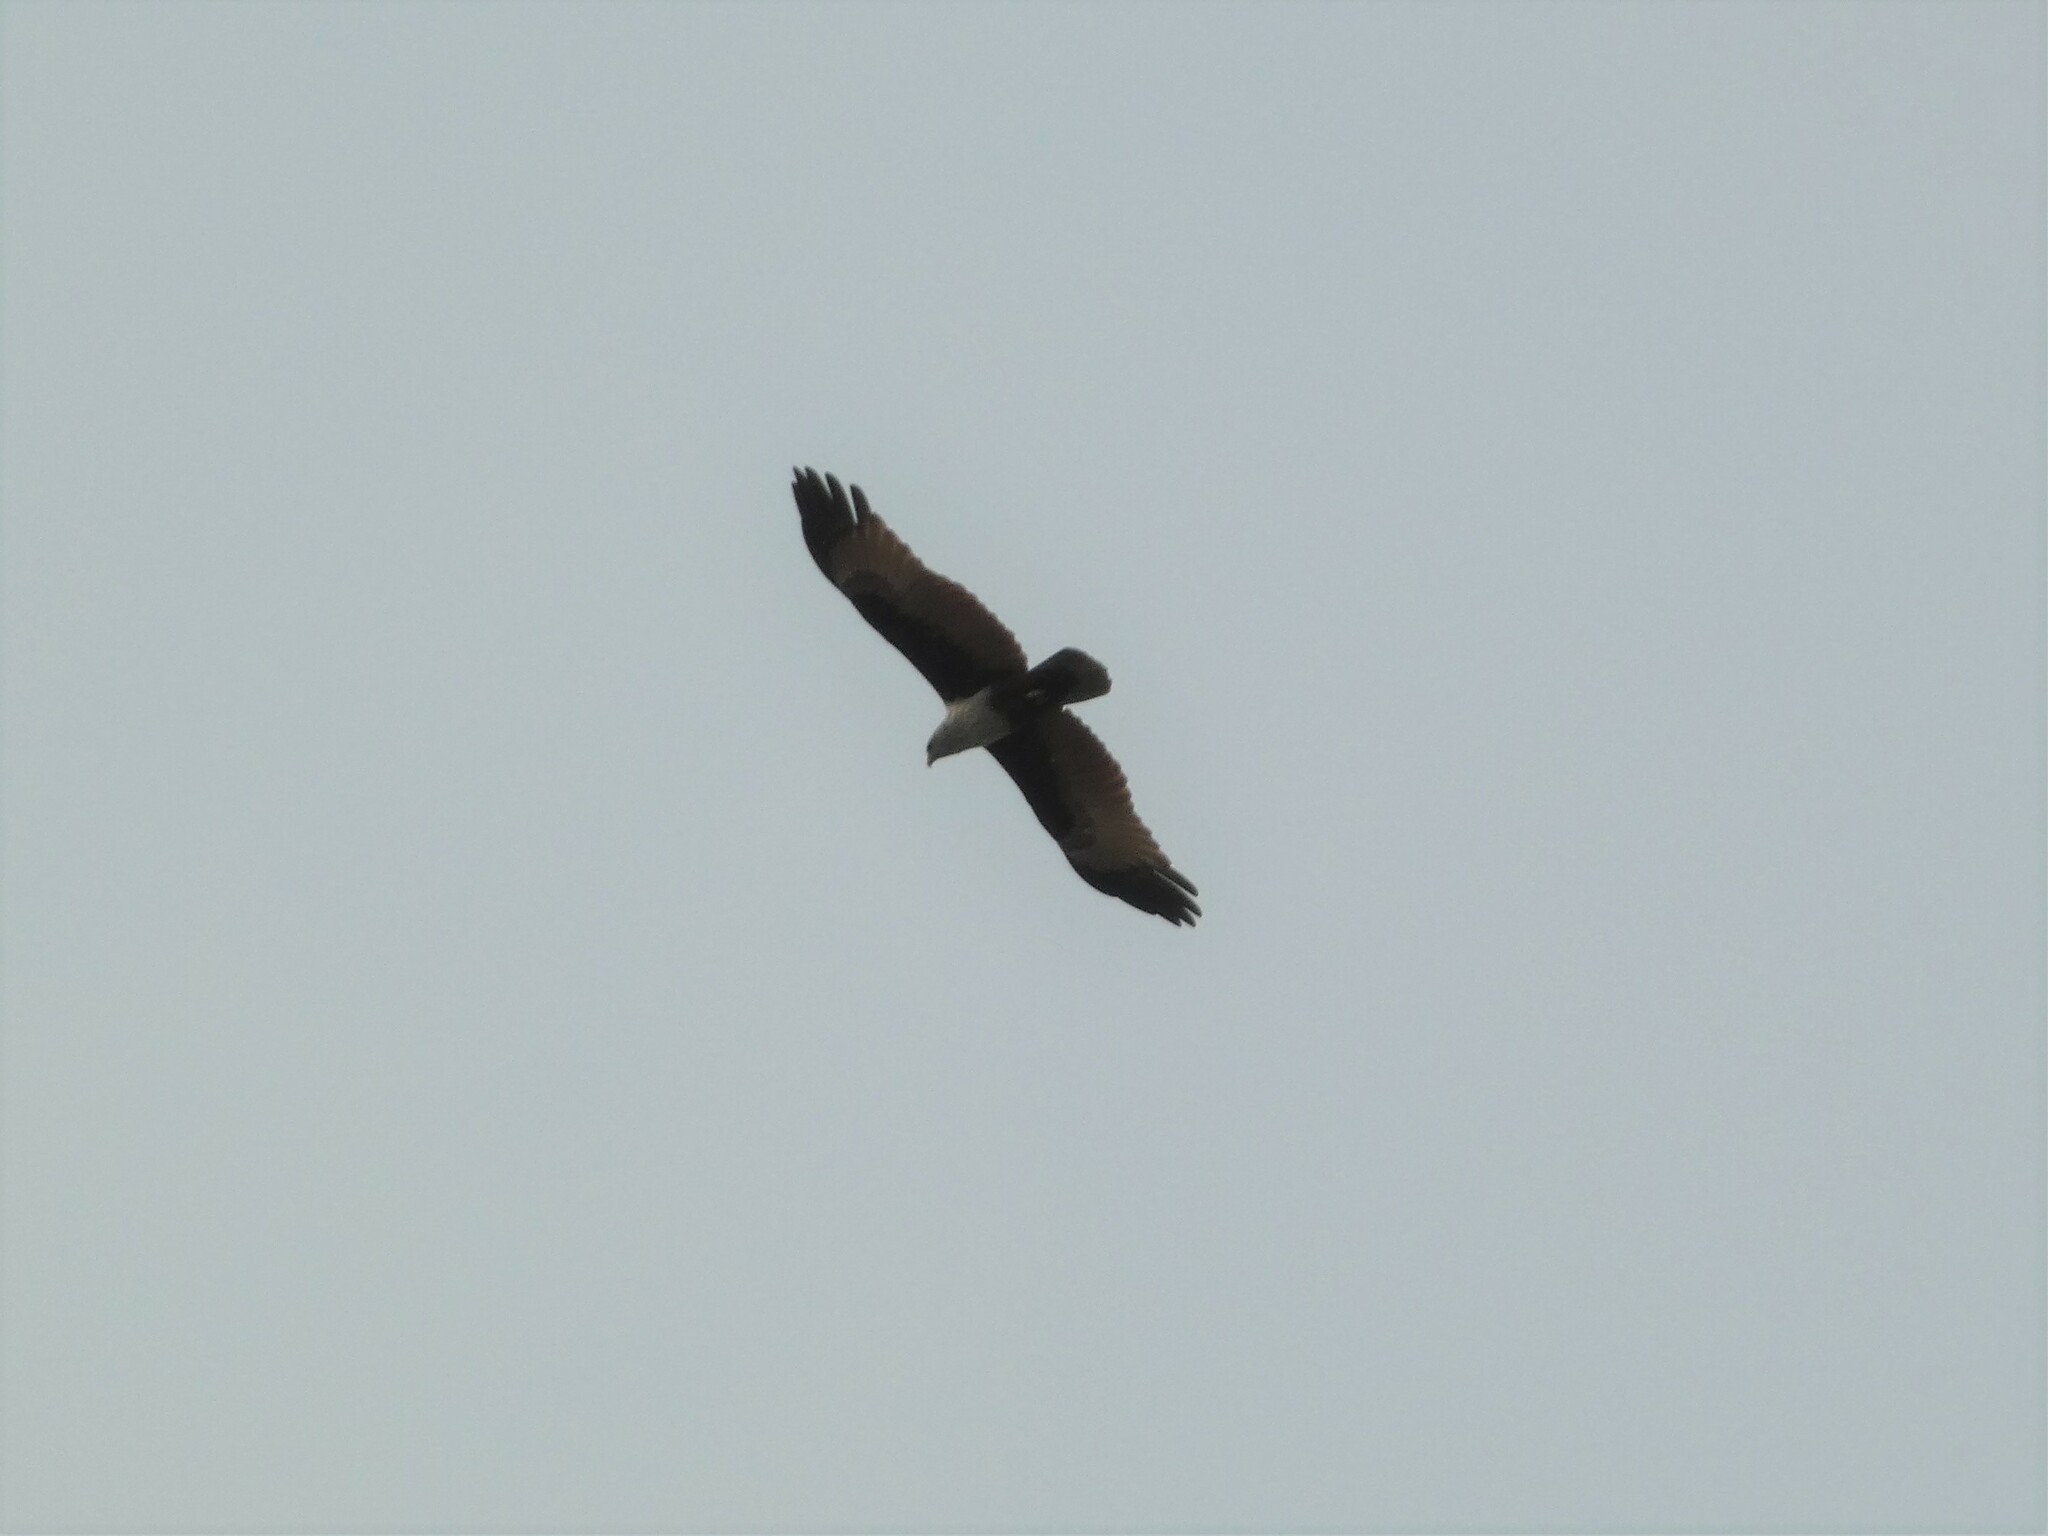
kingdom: Animalia
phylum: Chordata
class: Aves
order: Accipitriformes
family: Accipitridae
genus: Haliastur
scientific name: Haliastur indus
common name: Brahminy kite
